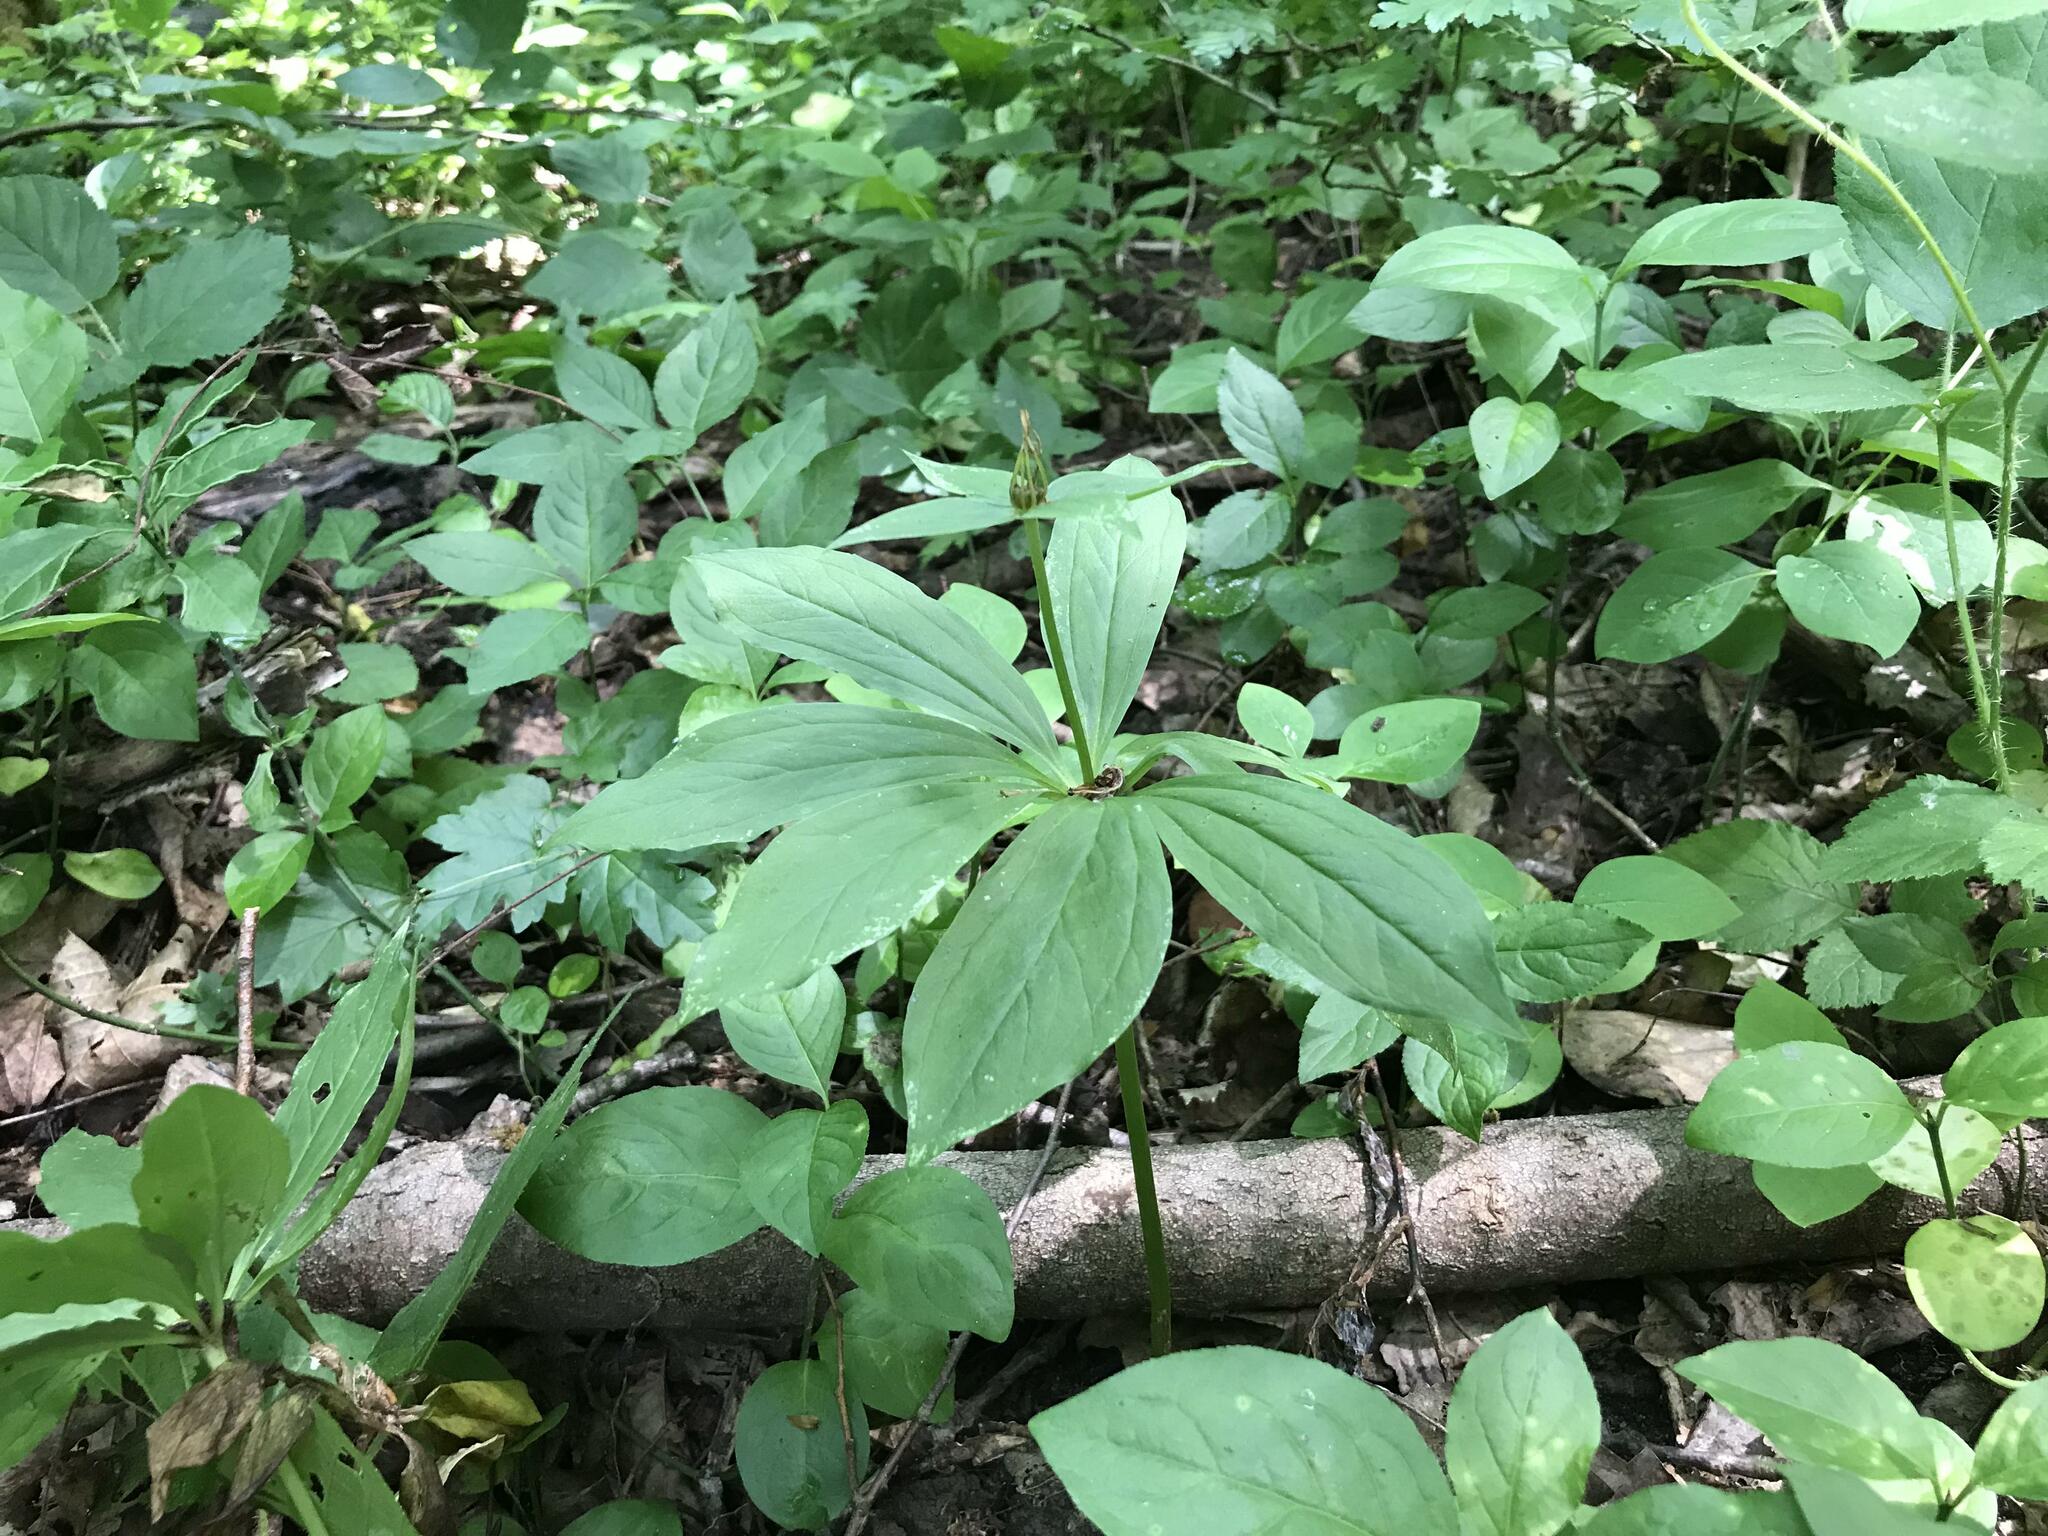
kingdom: Plantae
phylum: Tracheophyta
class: Liliopsida
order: Liliales
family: Melanthiaceae
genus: Paris
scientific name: Paris incompleta
